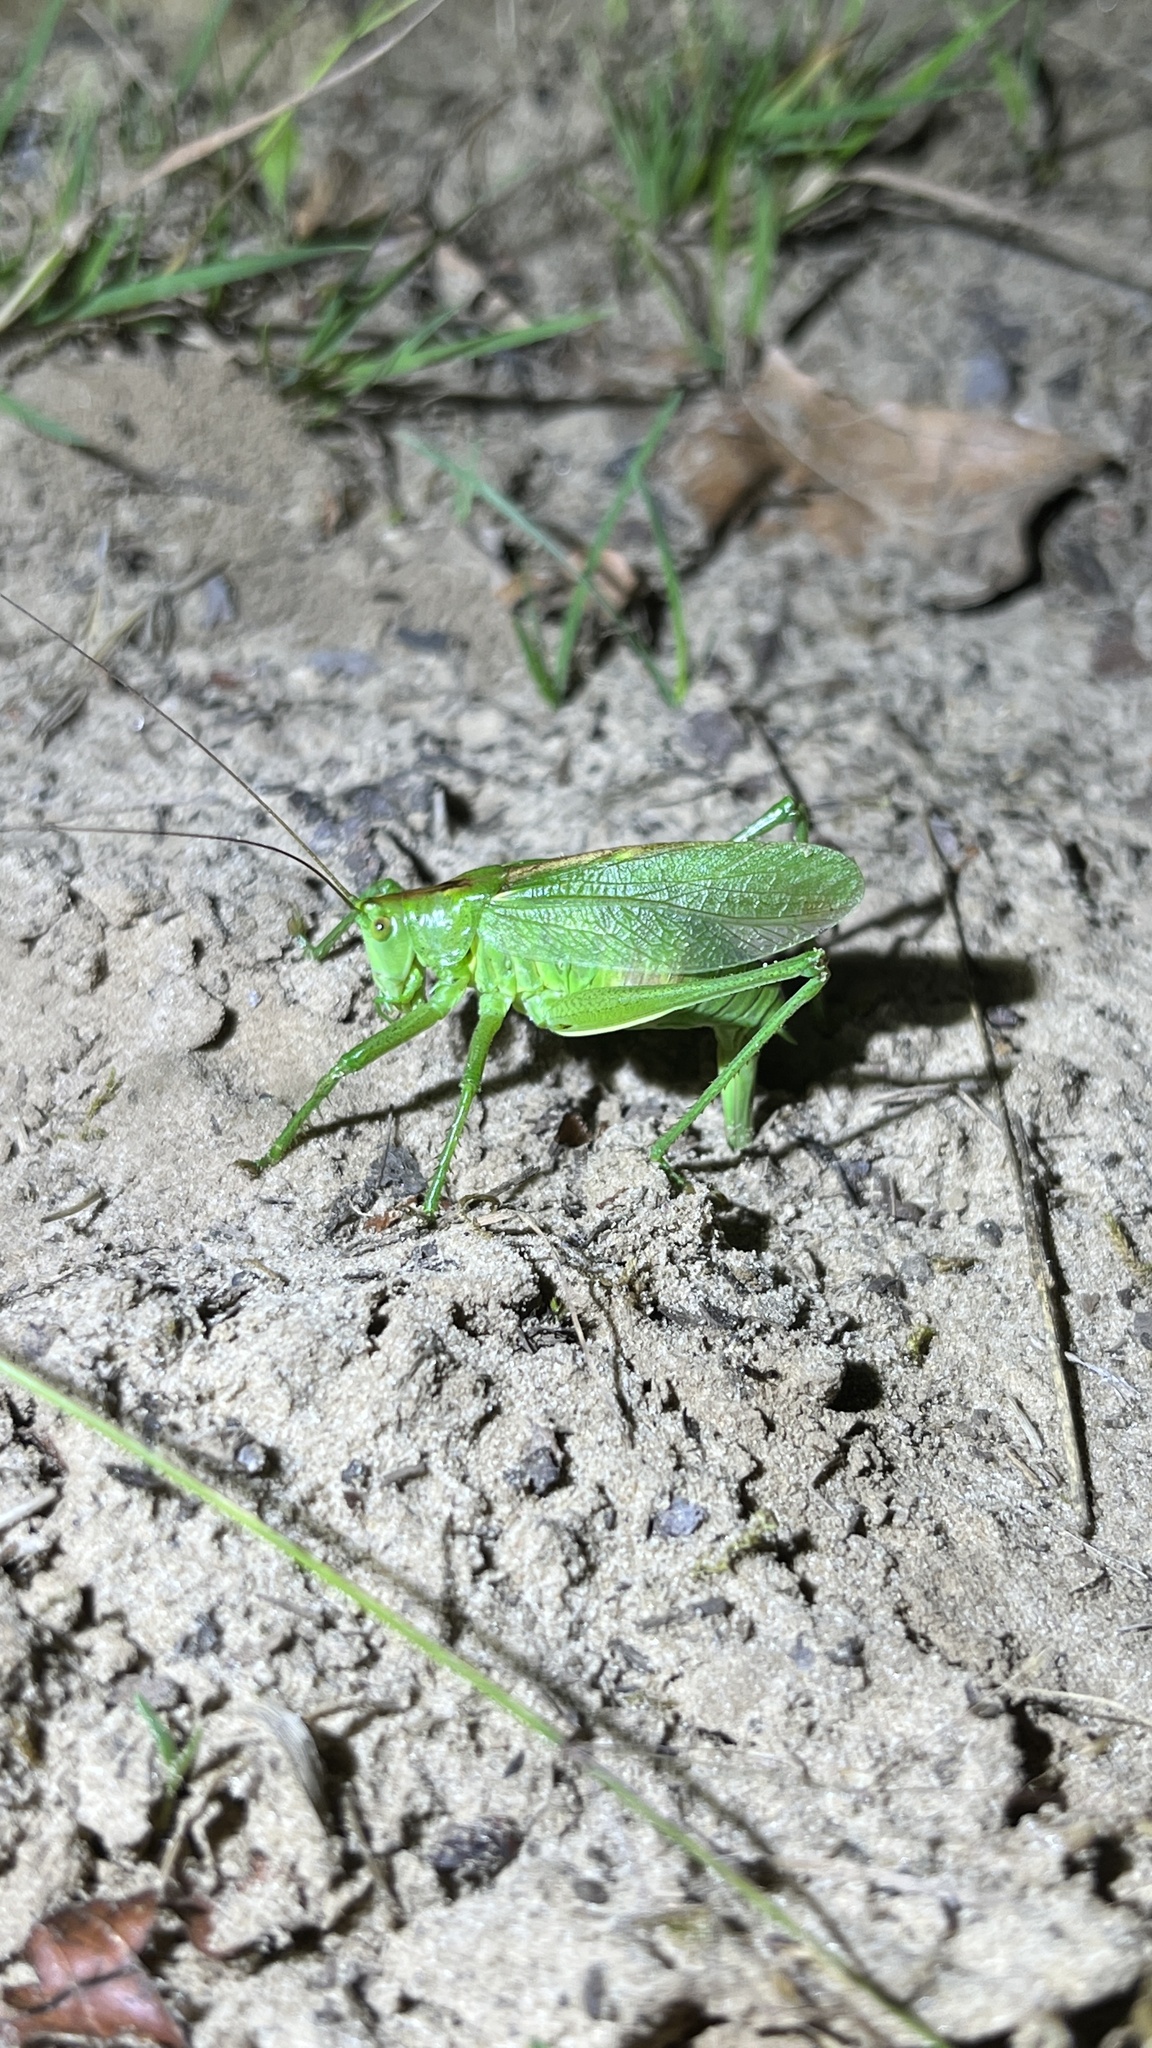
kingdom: Animalia
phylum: Arthropoda
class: Insecta
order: Orthoptera
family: Tettigoniidae
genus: Tettigonia
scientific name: Tettigonia cantans
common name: Upland green bush-cricket
